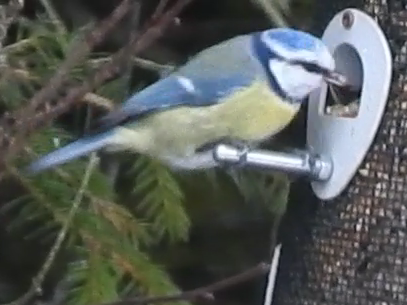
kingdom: Animalia
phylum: Chordata
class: Aves
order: Passeriformes
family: Paridae
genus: Cyanistes
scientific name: Cyanistes caeruleus
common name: Eurasian blue tit
